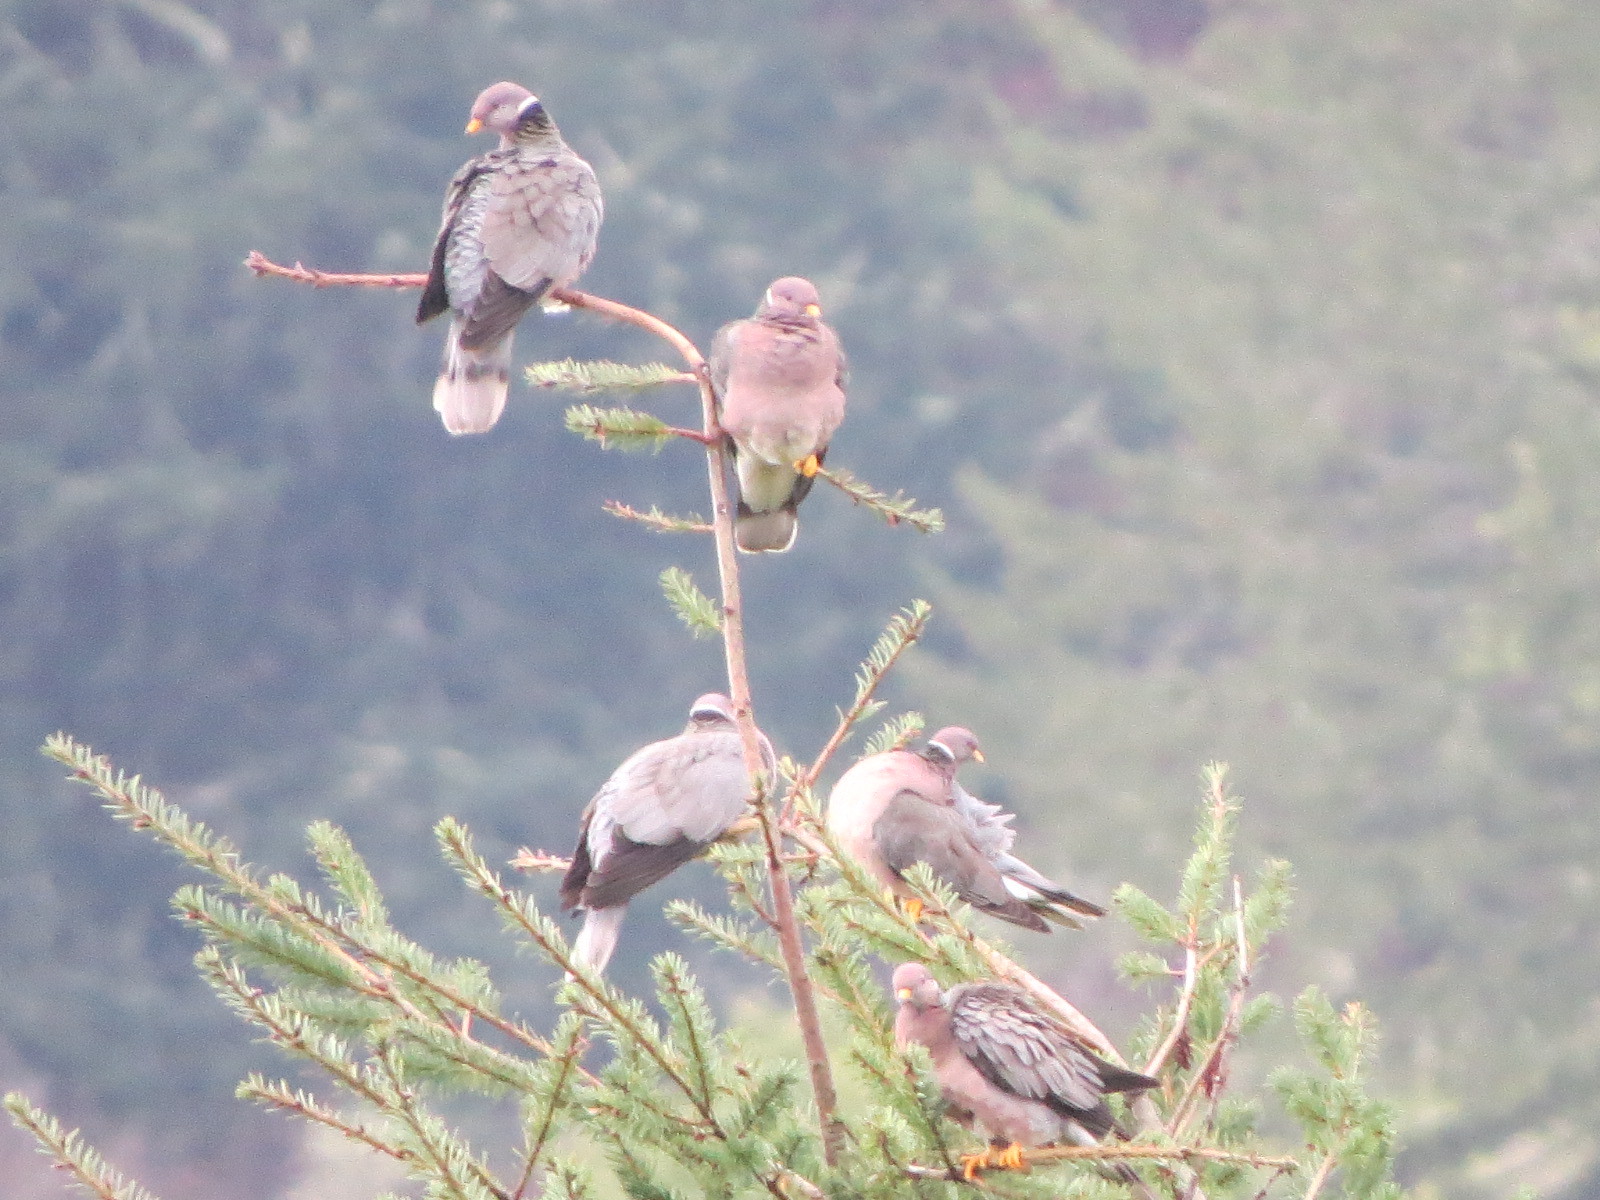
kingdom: Animalia
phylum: Chordata
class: Aves
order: Columbiformes
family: Columbidae
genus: Patagioenas
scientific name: Patagioenas fasciata
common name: Band-tailed pigeon
